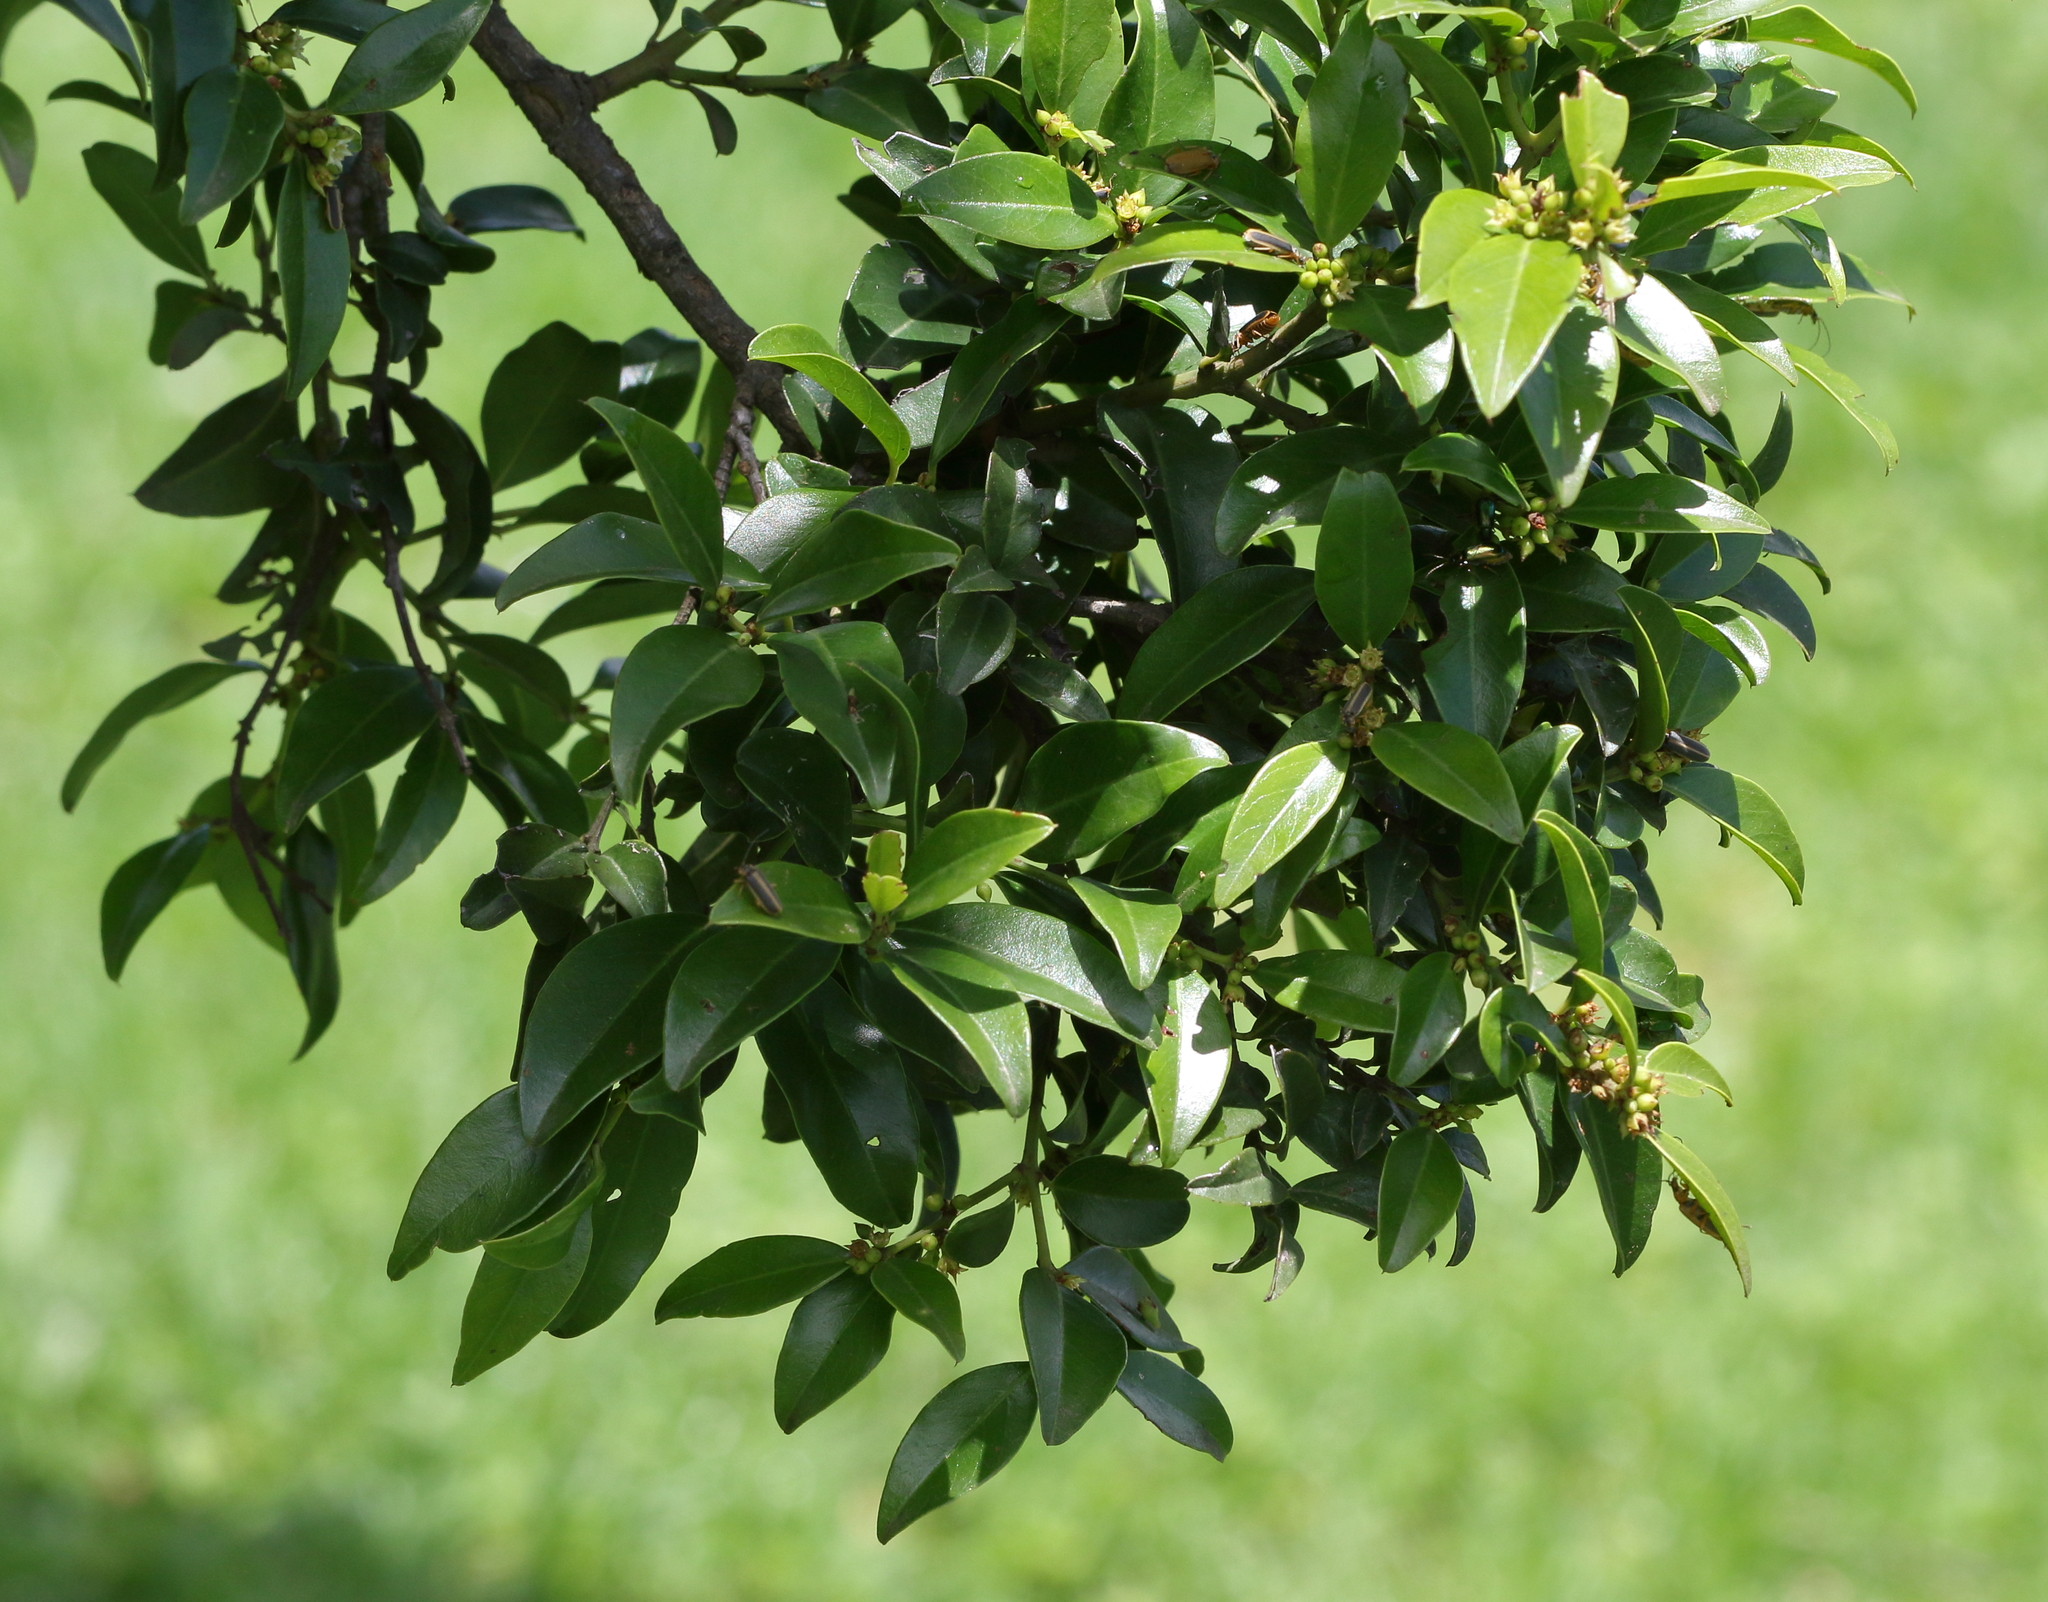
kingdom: Plantae
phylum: Tracheophyta
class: Magnoliopsida
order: Rosales
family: Rhamnaceae
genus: Scutia
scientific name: Scutia myrtina
